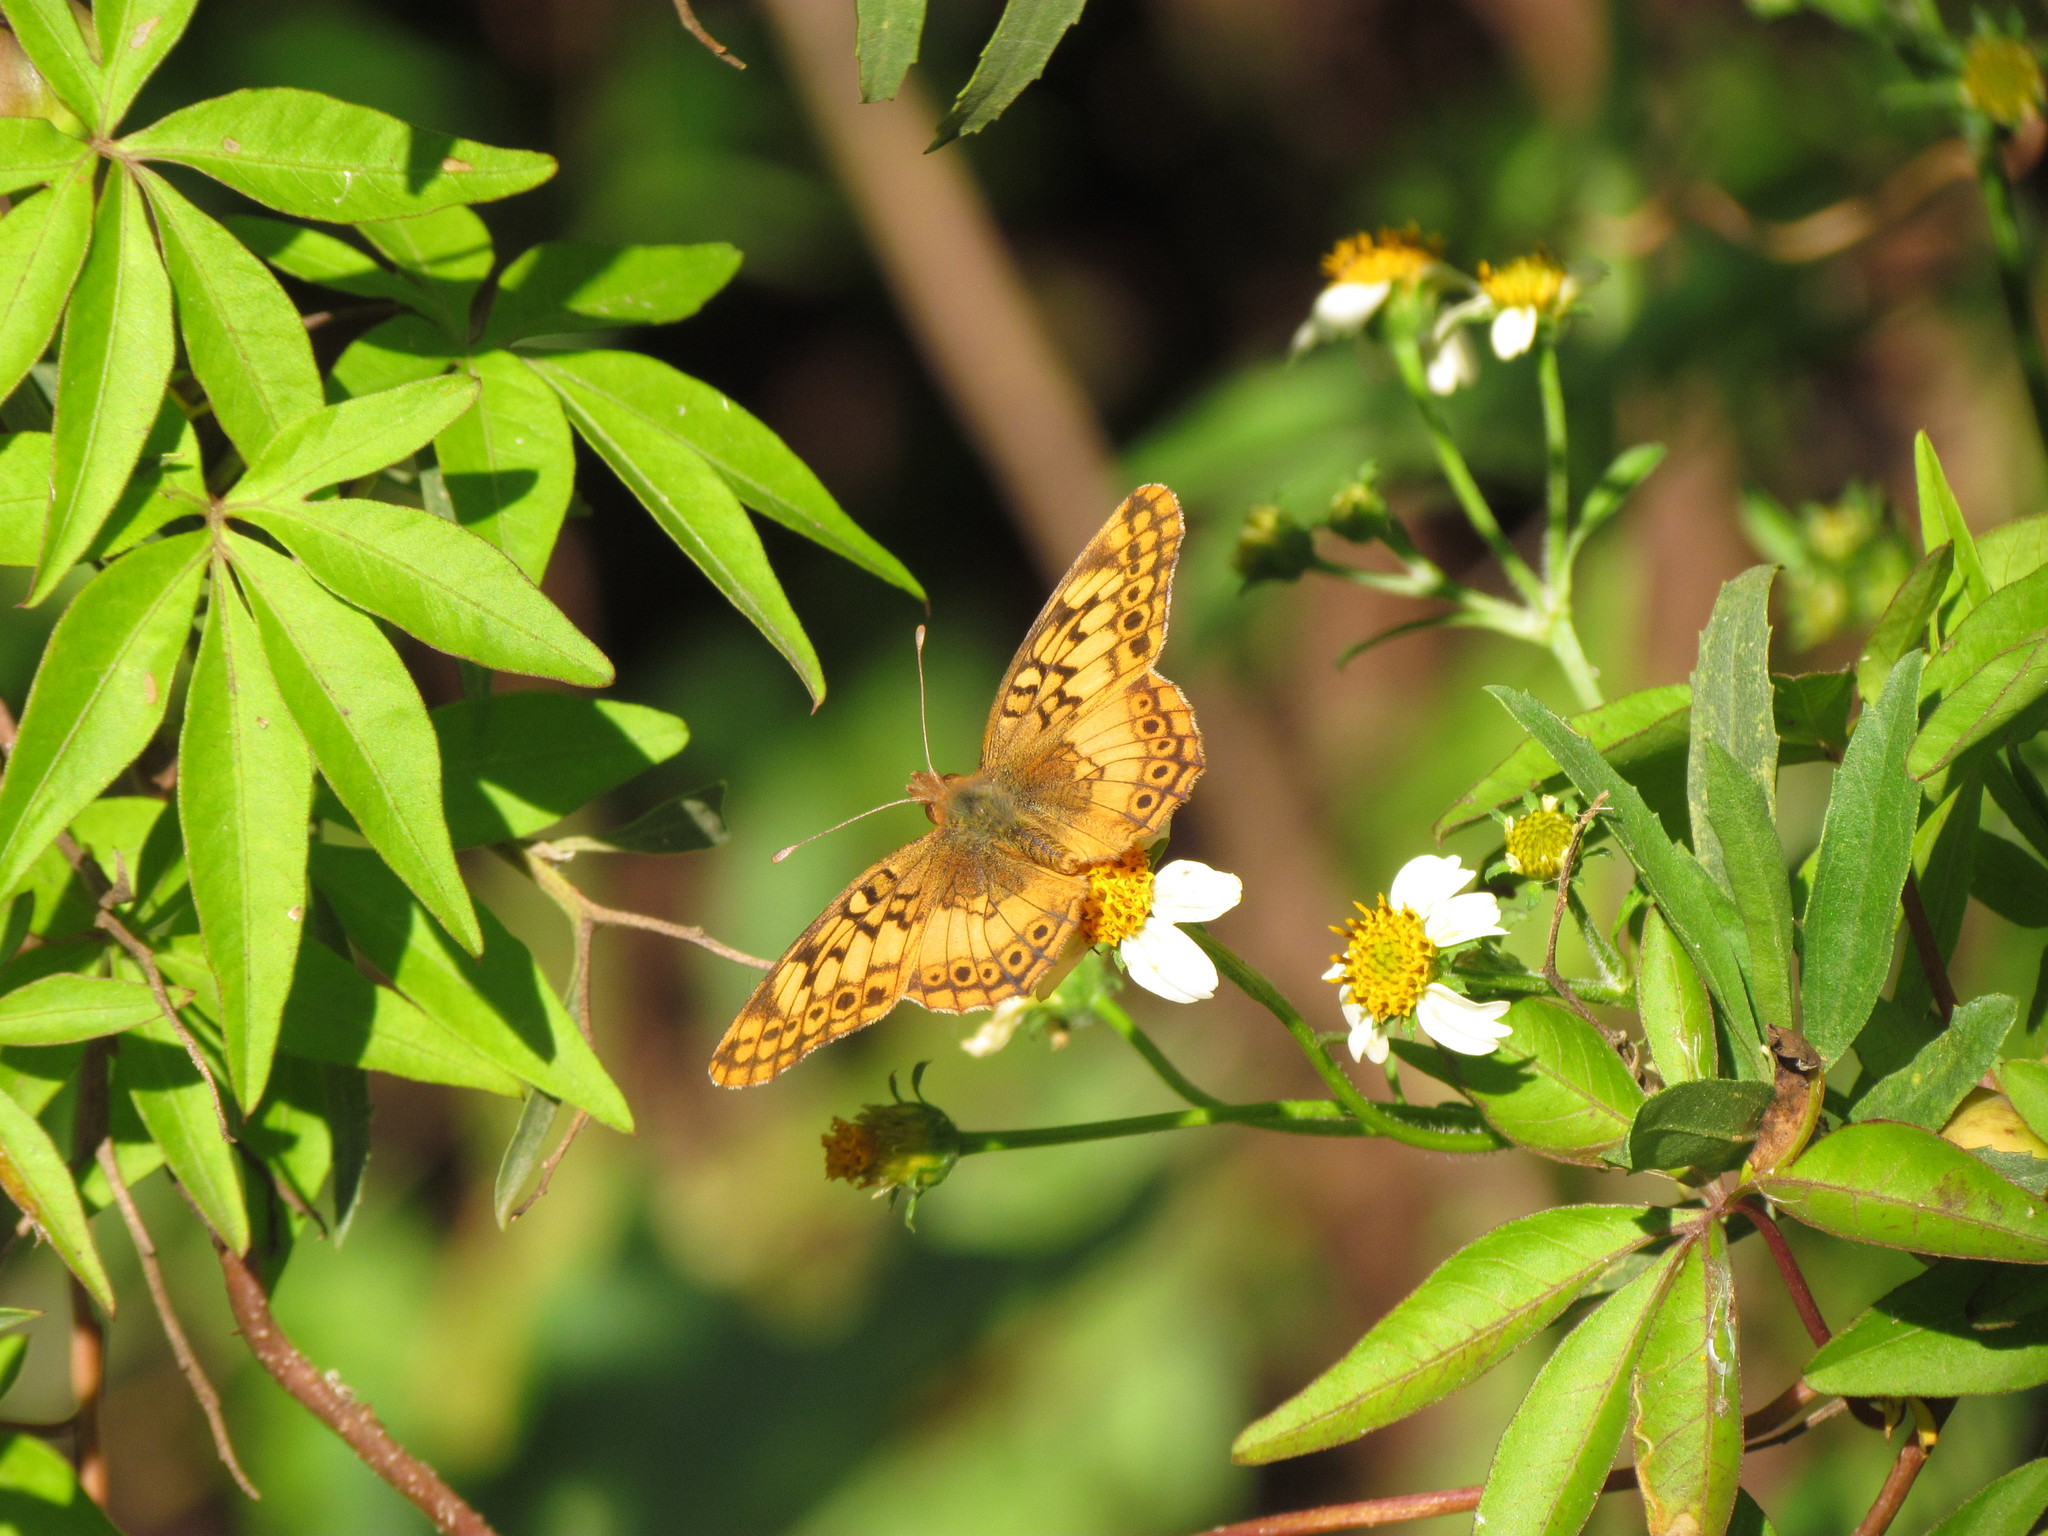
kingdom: Animalia
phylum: Arthropoda
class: Insecta
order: Lepidoptera
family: Nymphalidae
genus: Euptoieta
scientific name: Euptoieta hortensia
